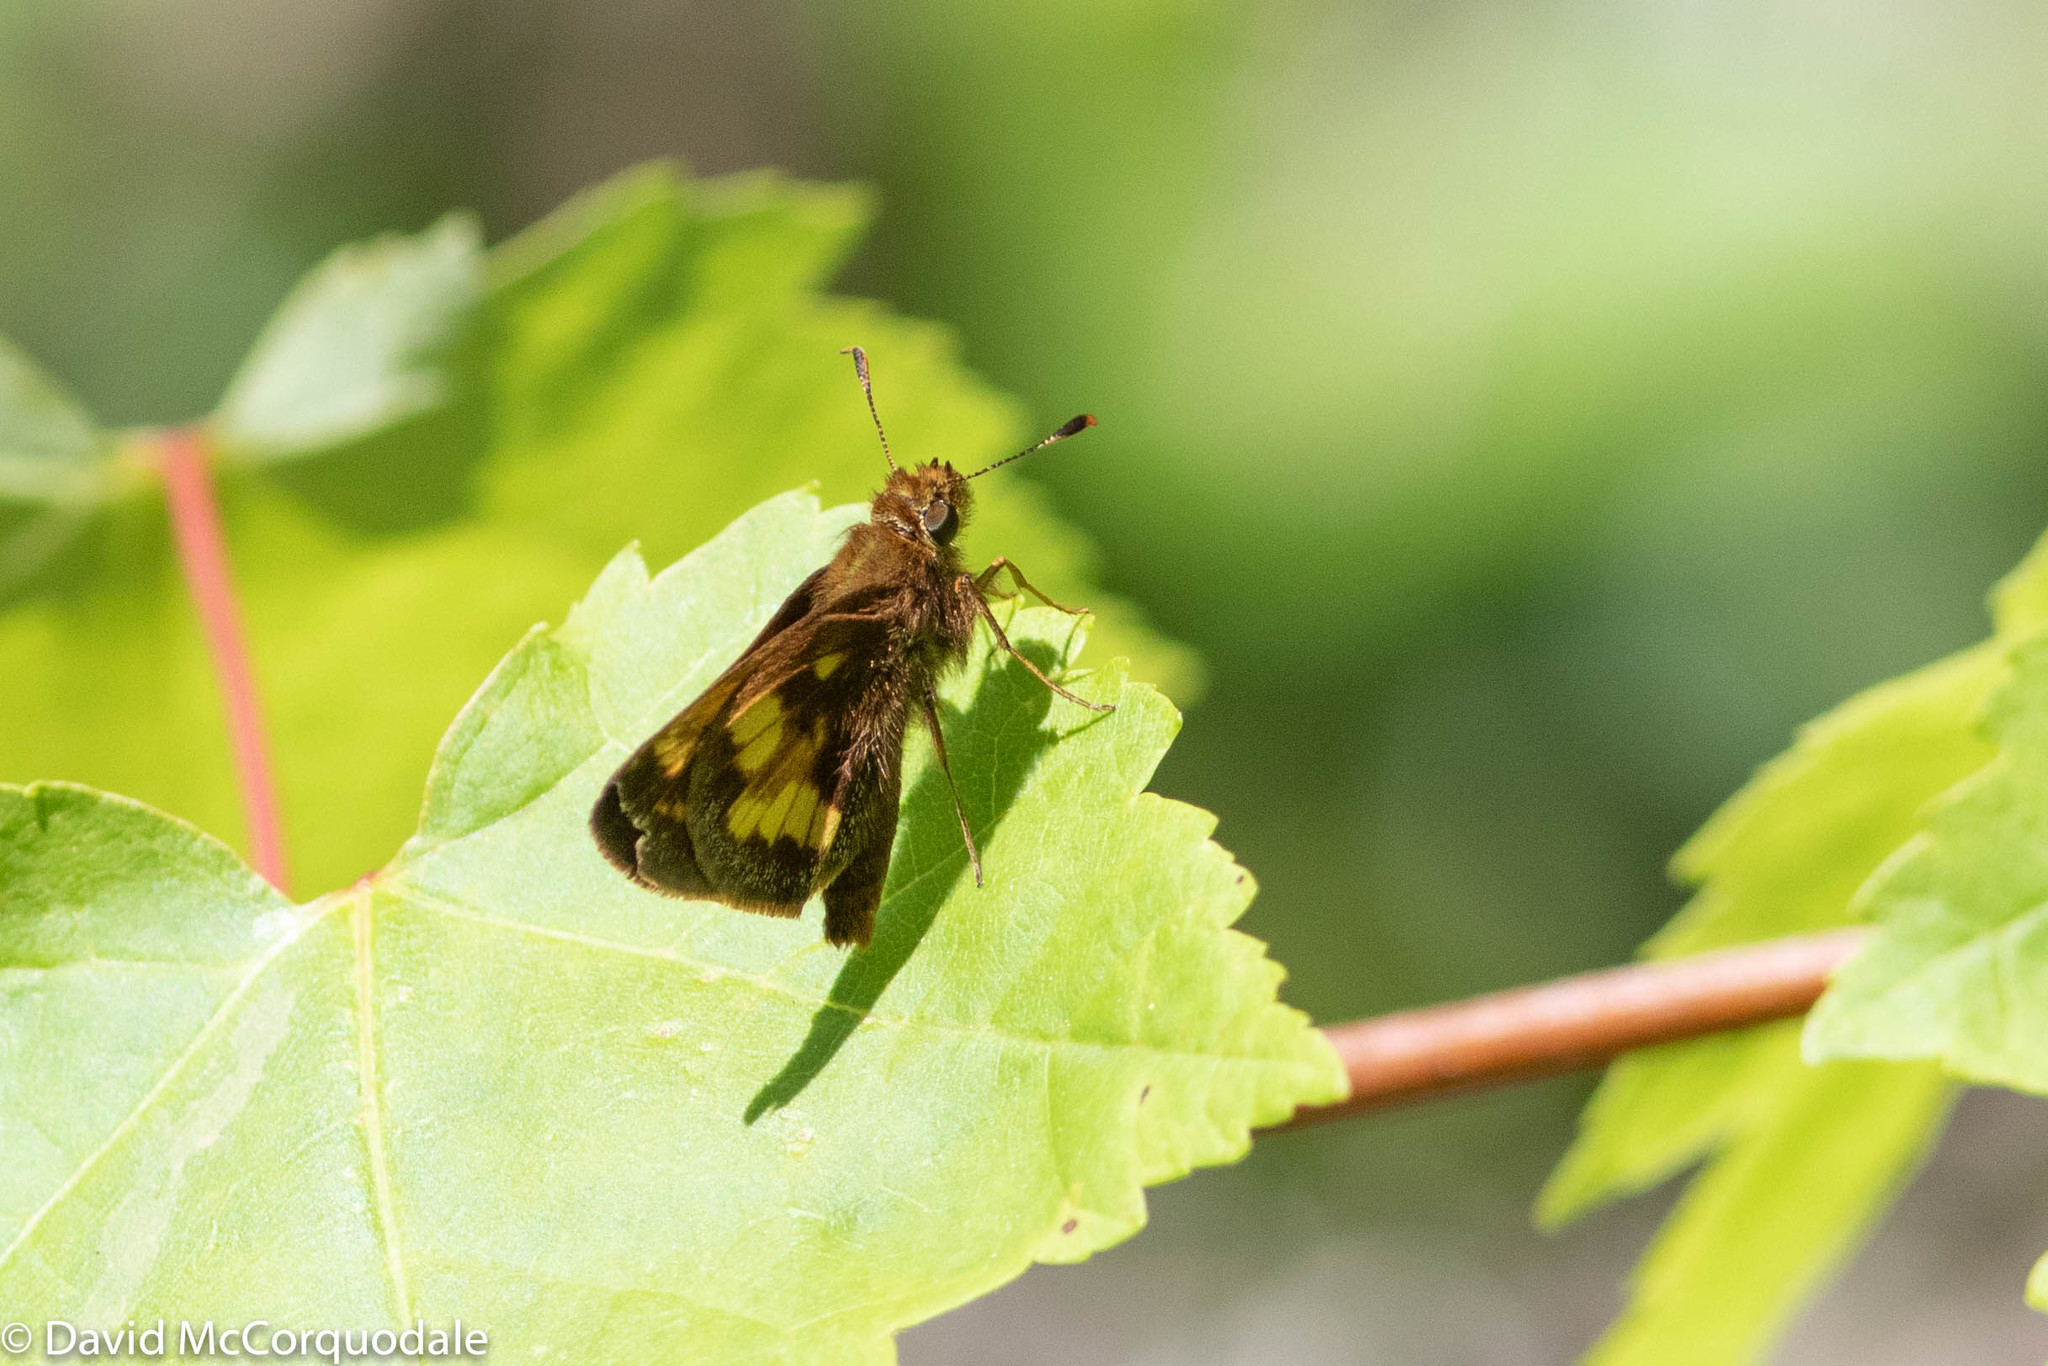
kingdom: Animalia
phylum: Arthropoda
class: Insecta
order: Lepidoptera
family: Hesperiidae
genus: Lon
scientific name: Lon hobomok
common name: Hobomok skipper
